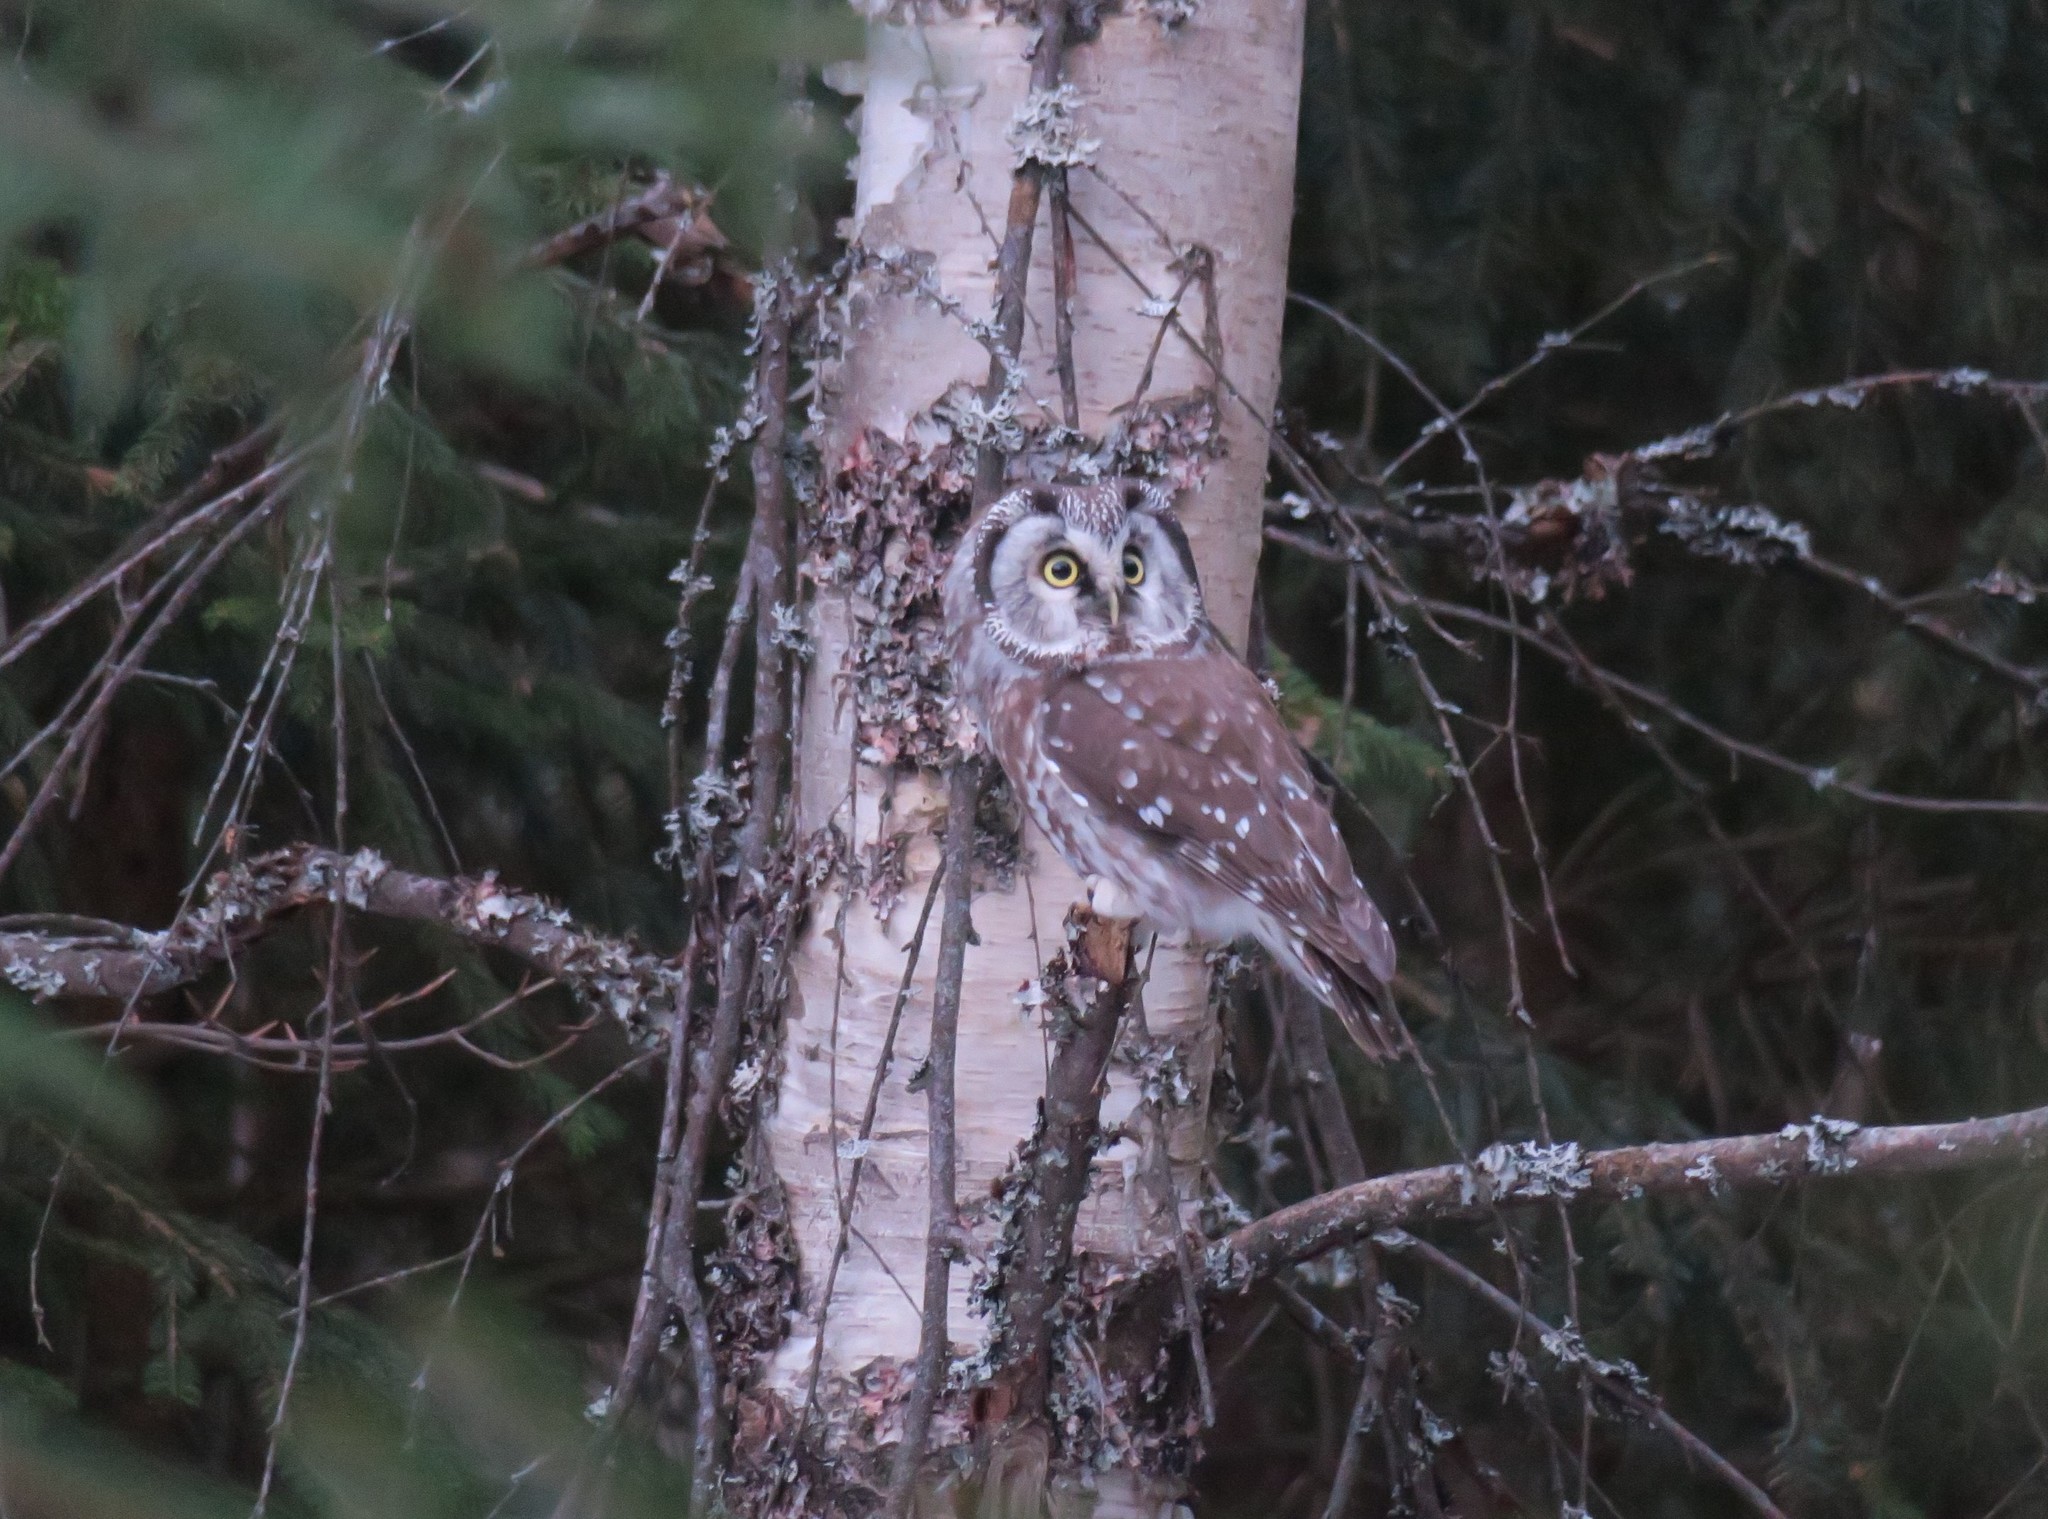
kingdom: Animalia
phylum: Chordata
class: Aves
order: Strigiformes
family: Strigidae
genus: Aegolius
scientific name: Aegolius funereus
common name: Boreal owl
